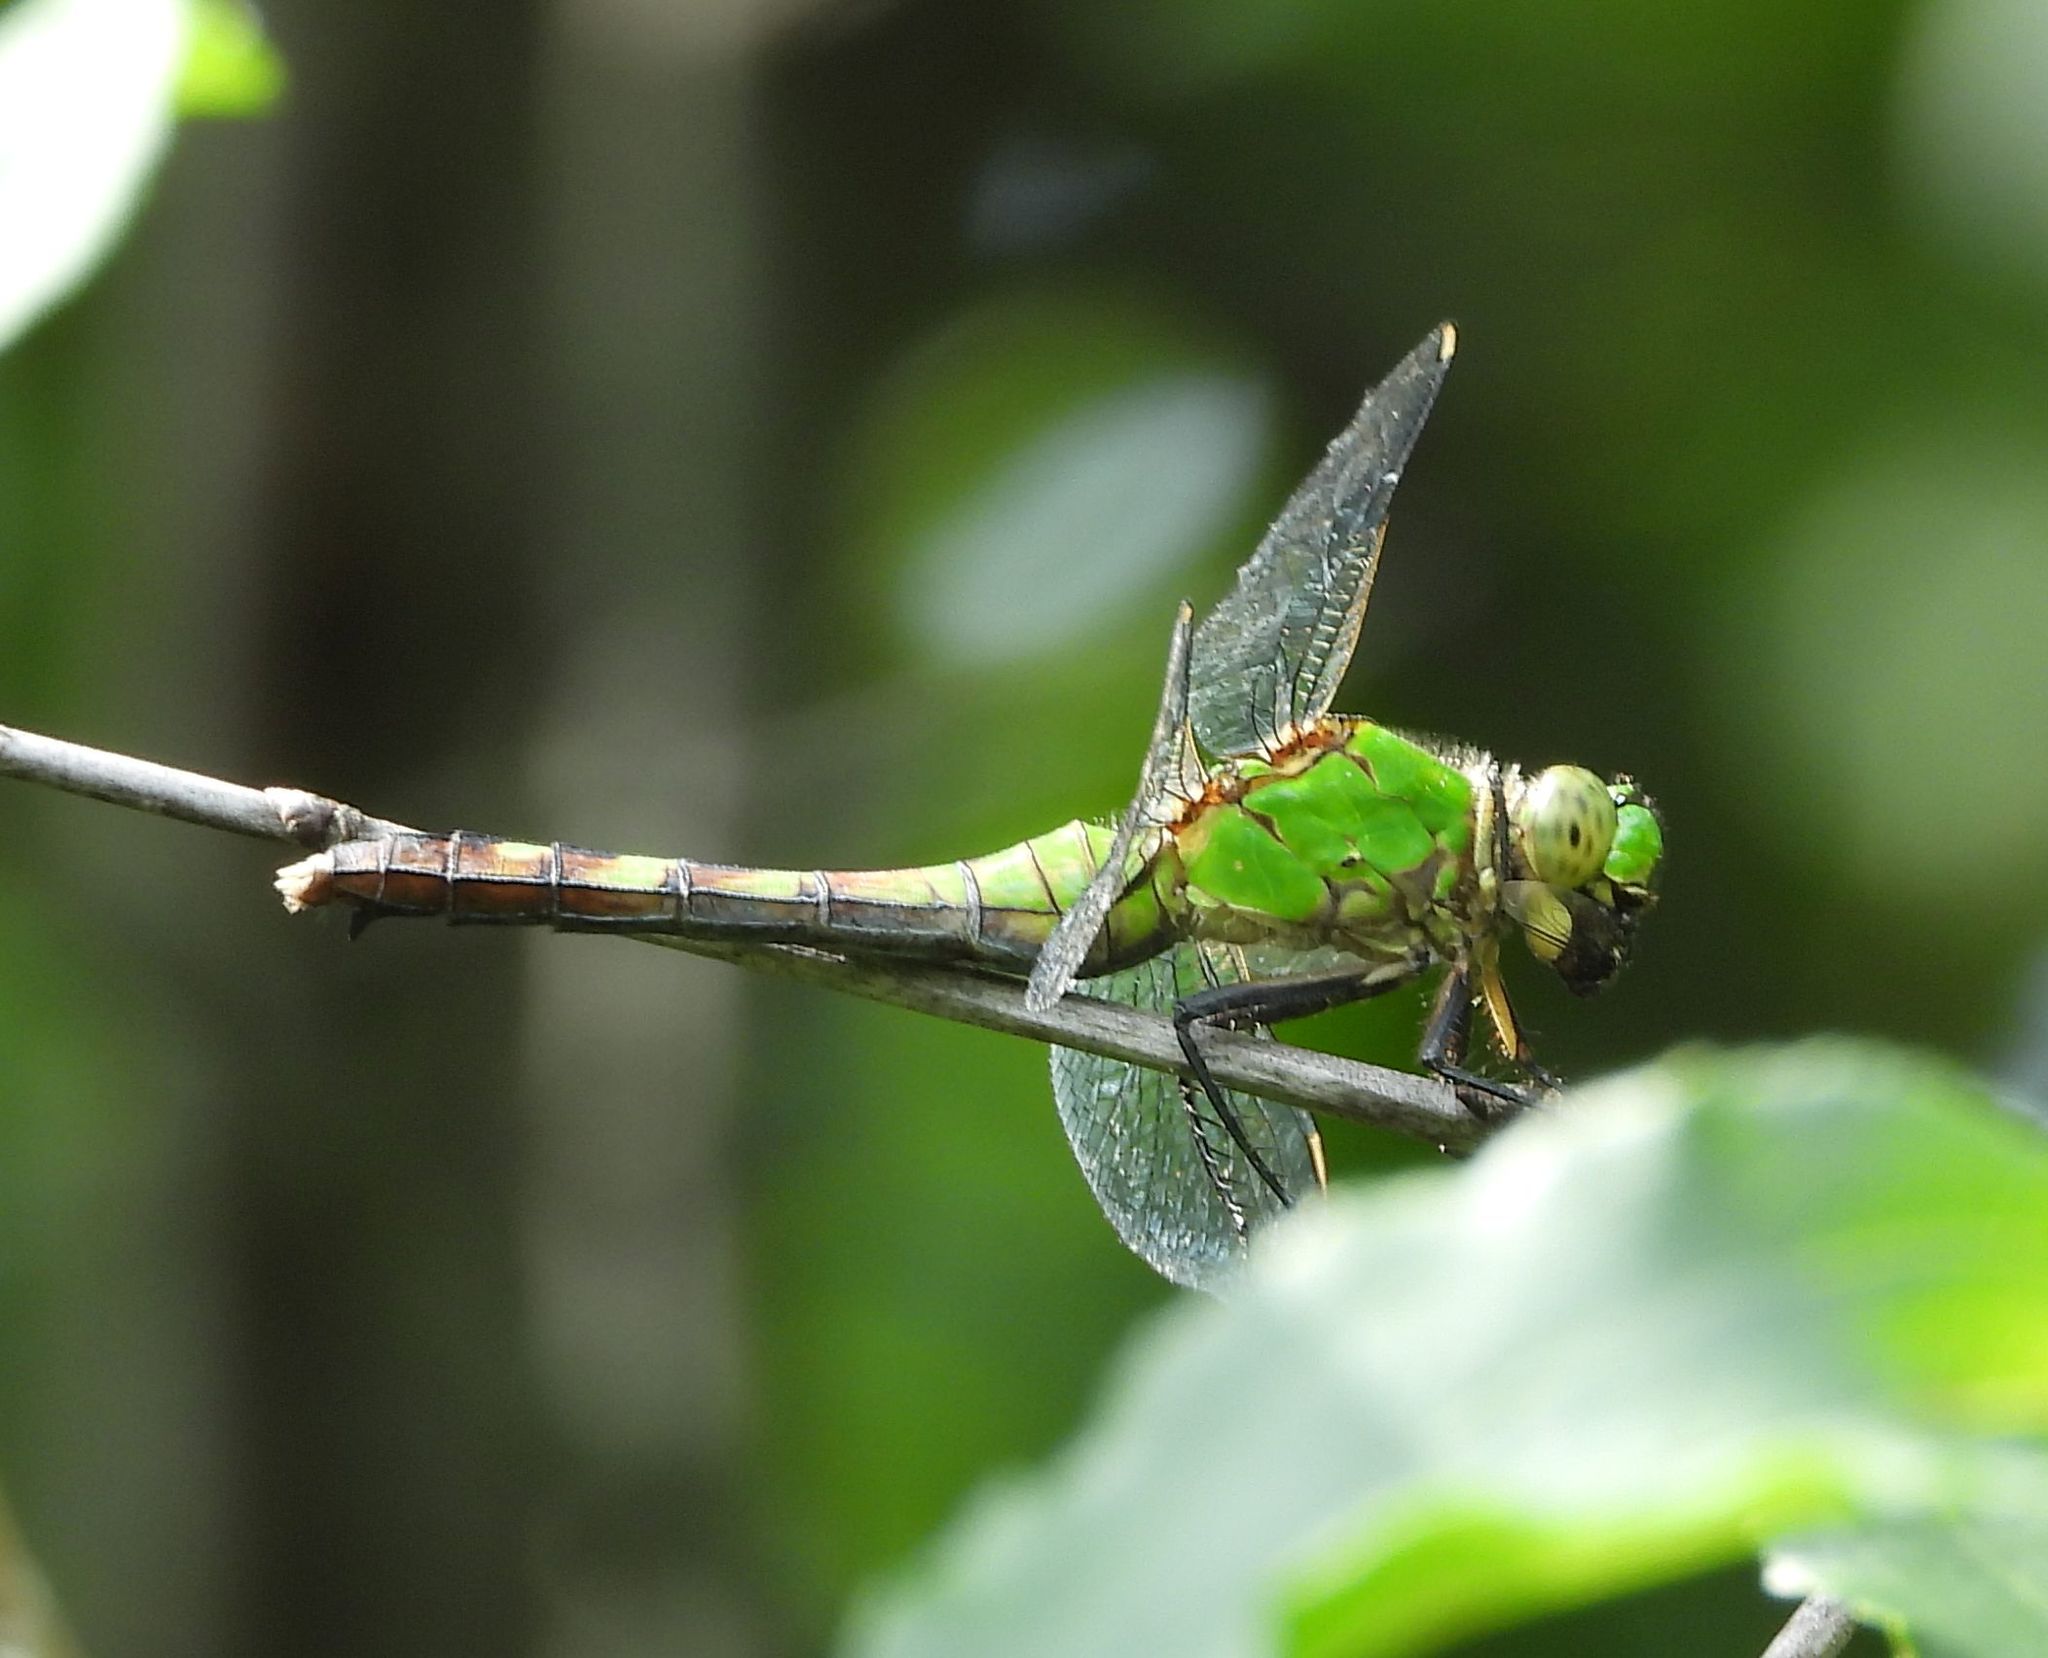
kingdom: Animalia
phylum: Arthropoda
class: Insecta
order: Odonata
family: Libellulidae
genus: Erythemis
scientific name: Erythemis simplicicollis
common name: Eastern pondhawk
